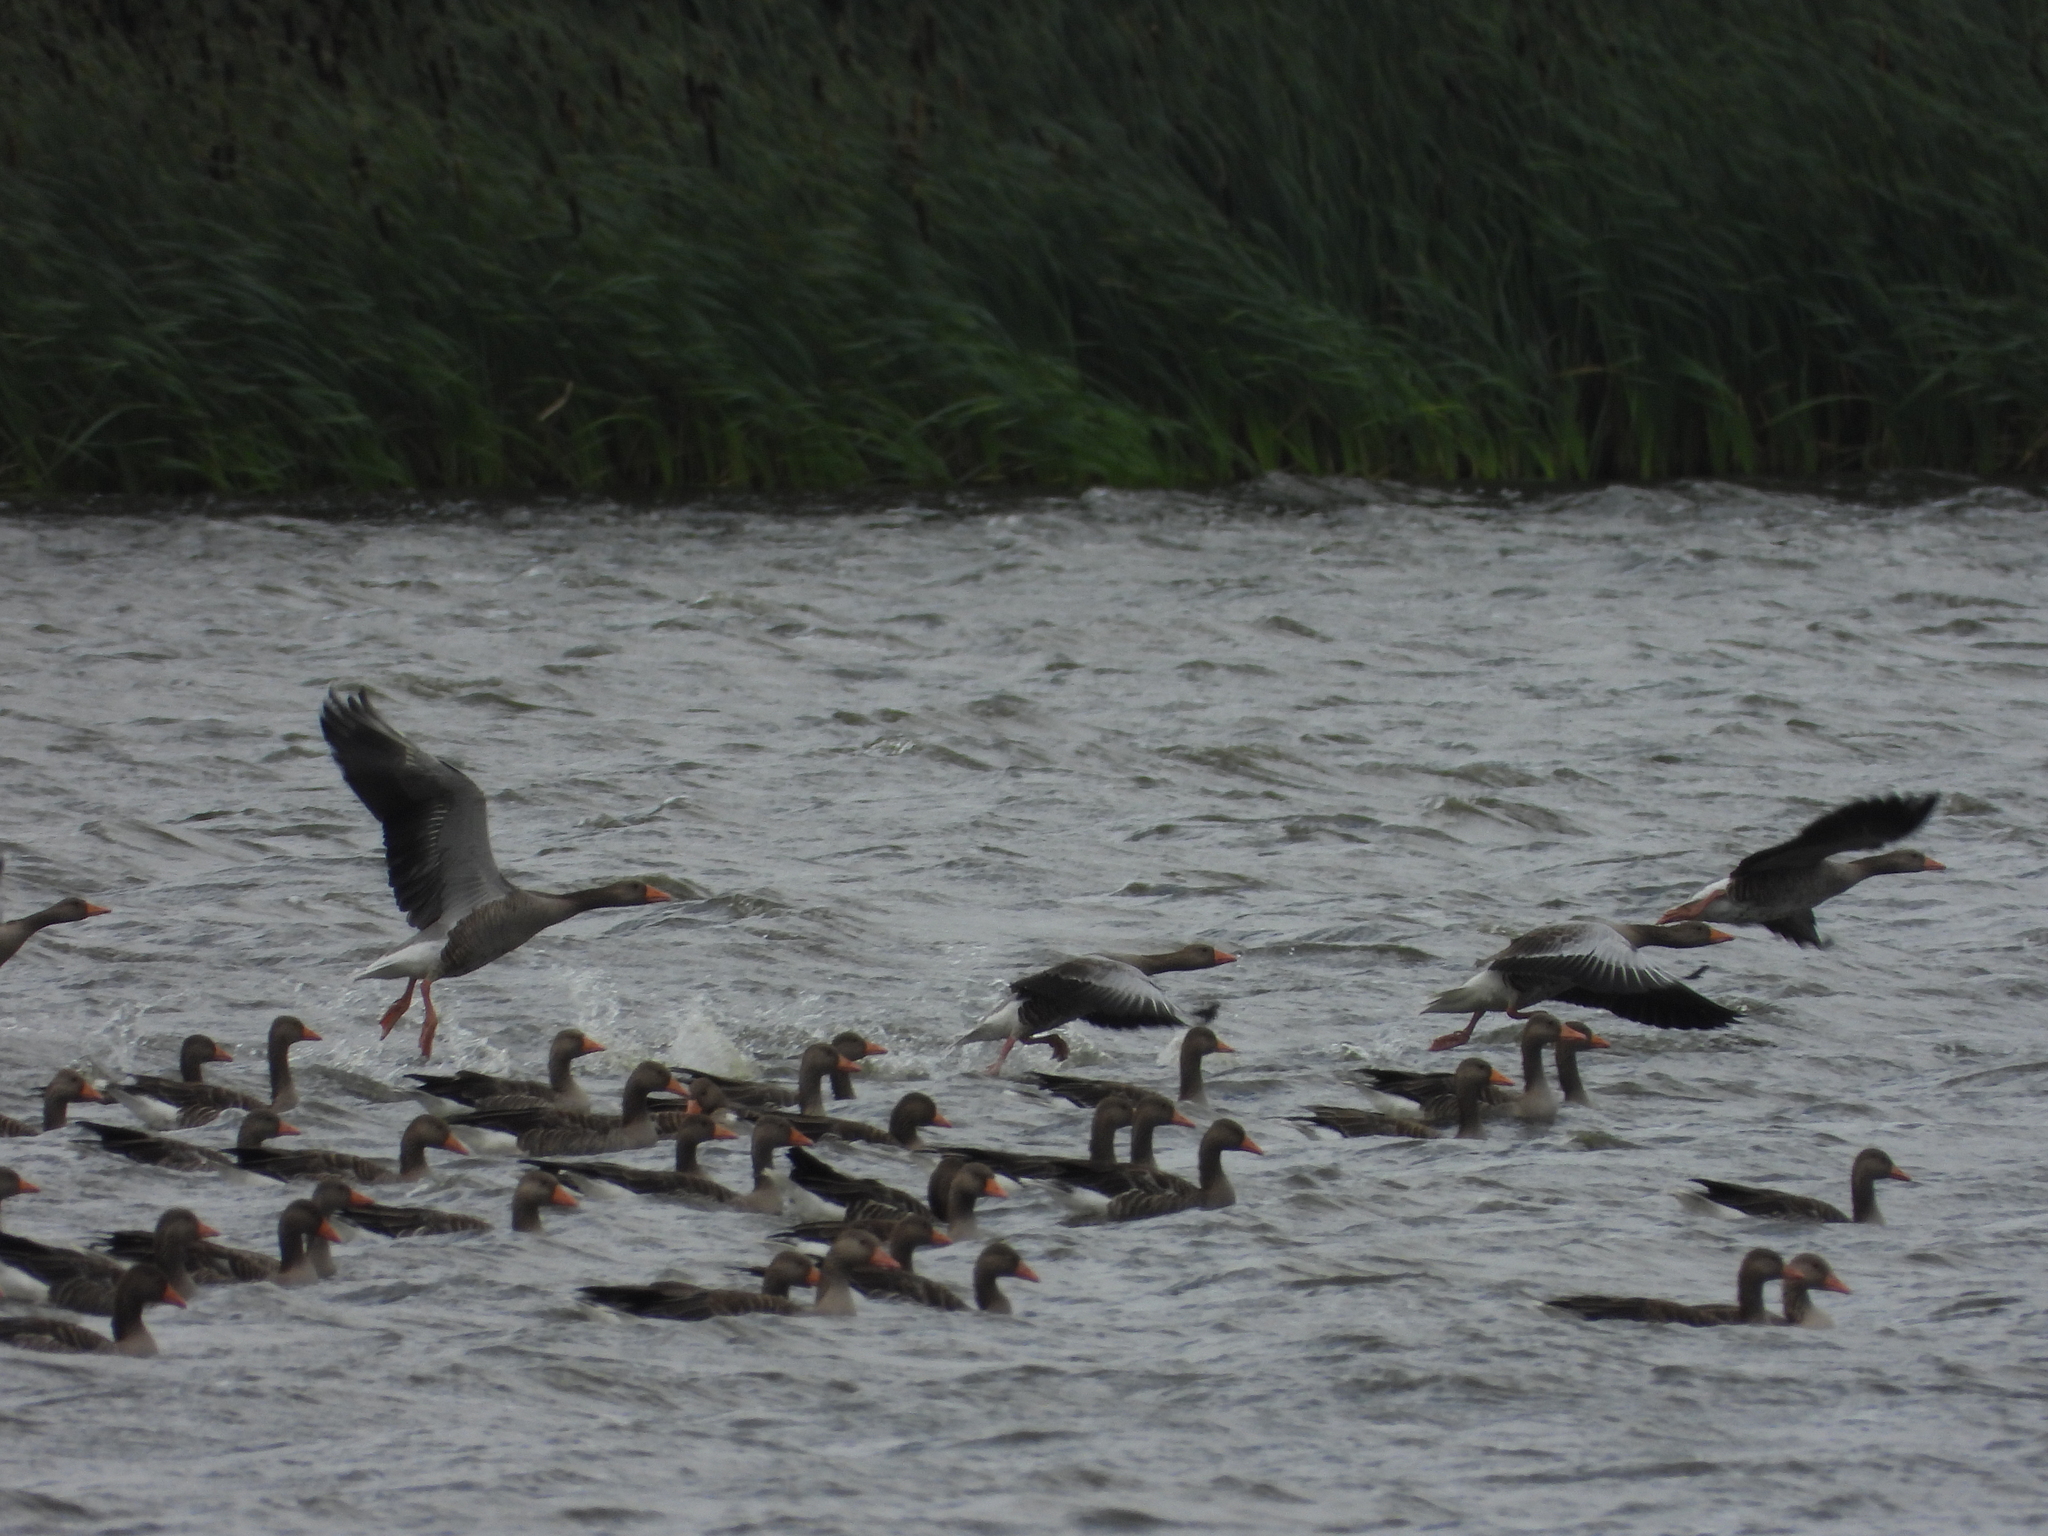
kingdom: Animalia
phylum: Chordata
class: Aves
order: Anseriformes
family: Anatidae
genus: Anser
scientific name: Anser anser
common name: Greylag goose
